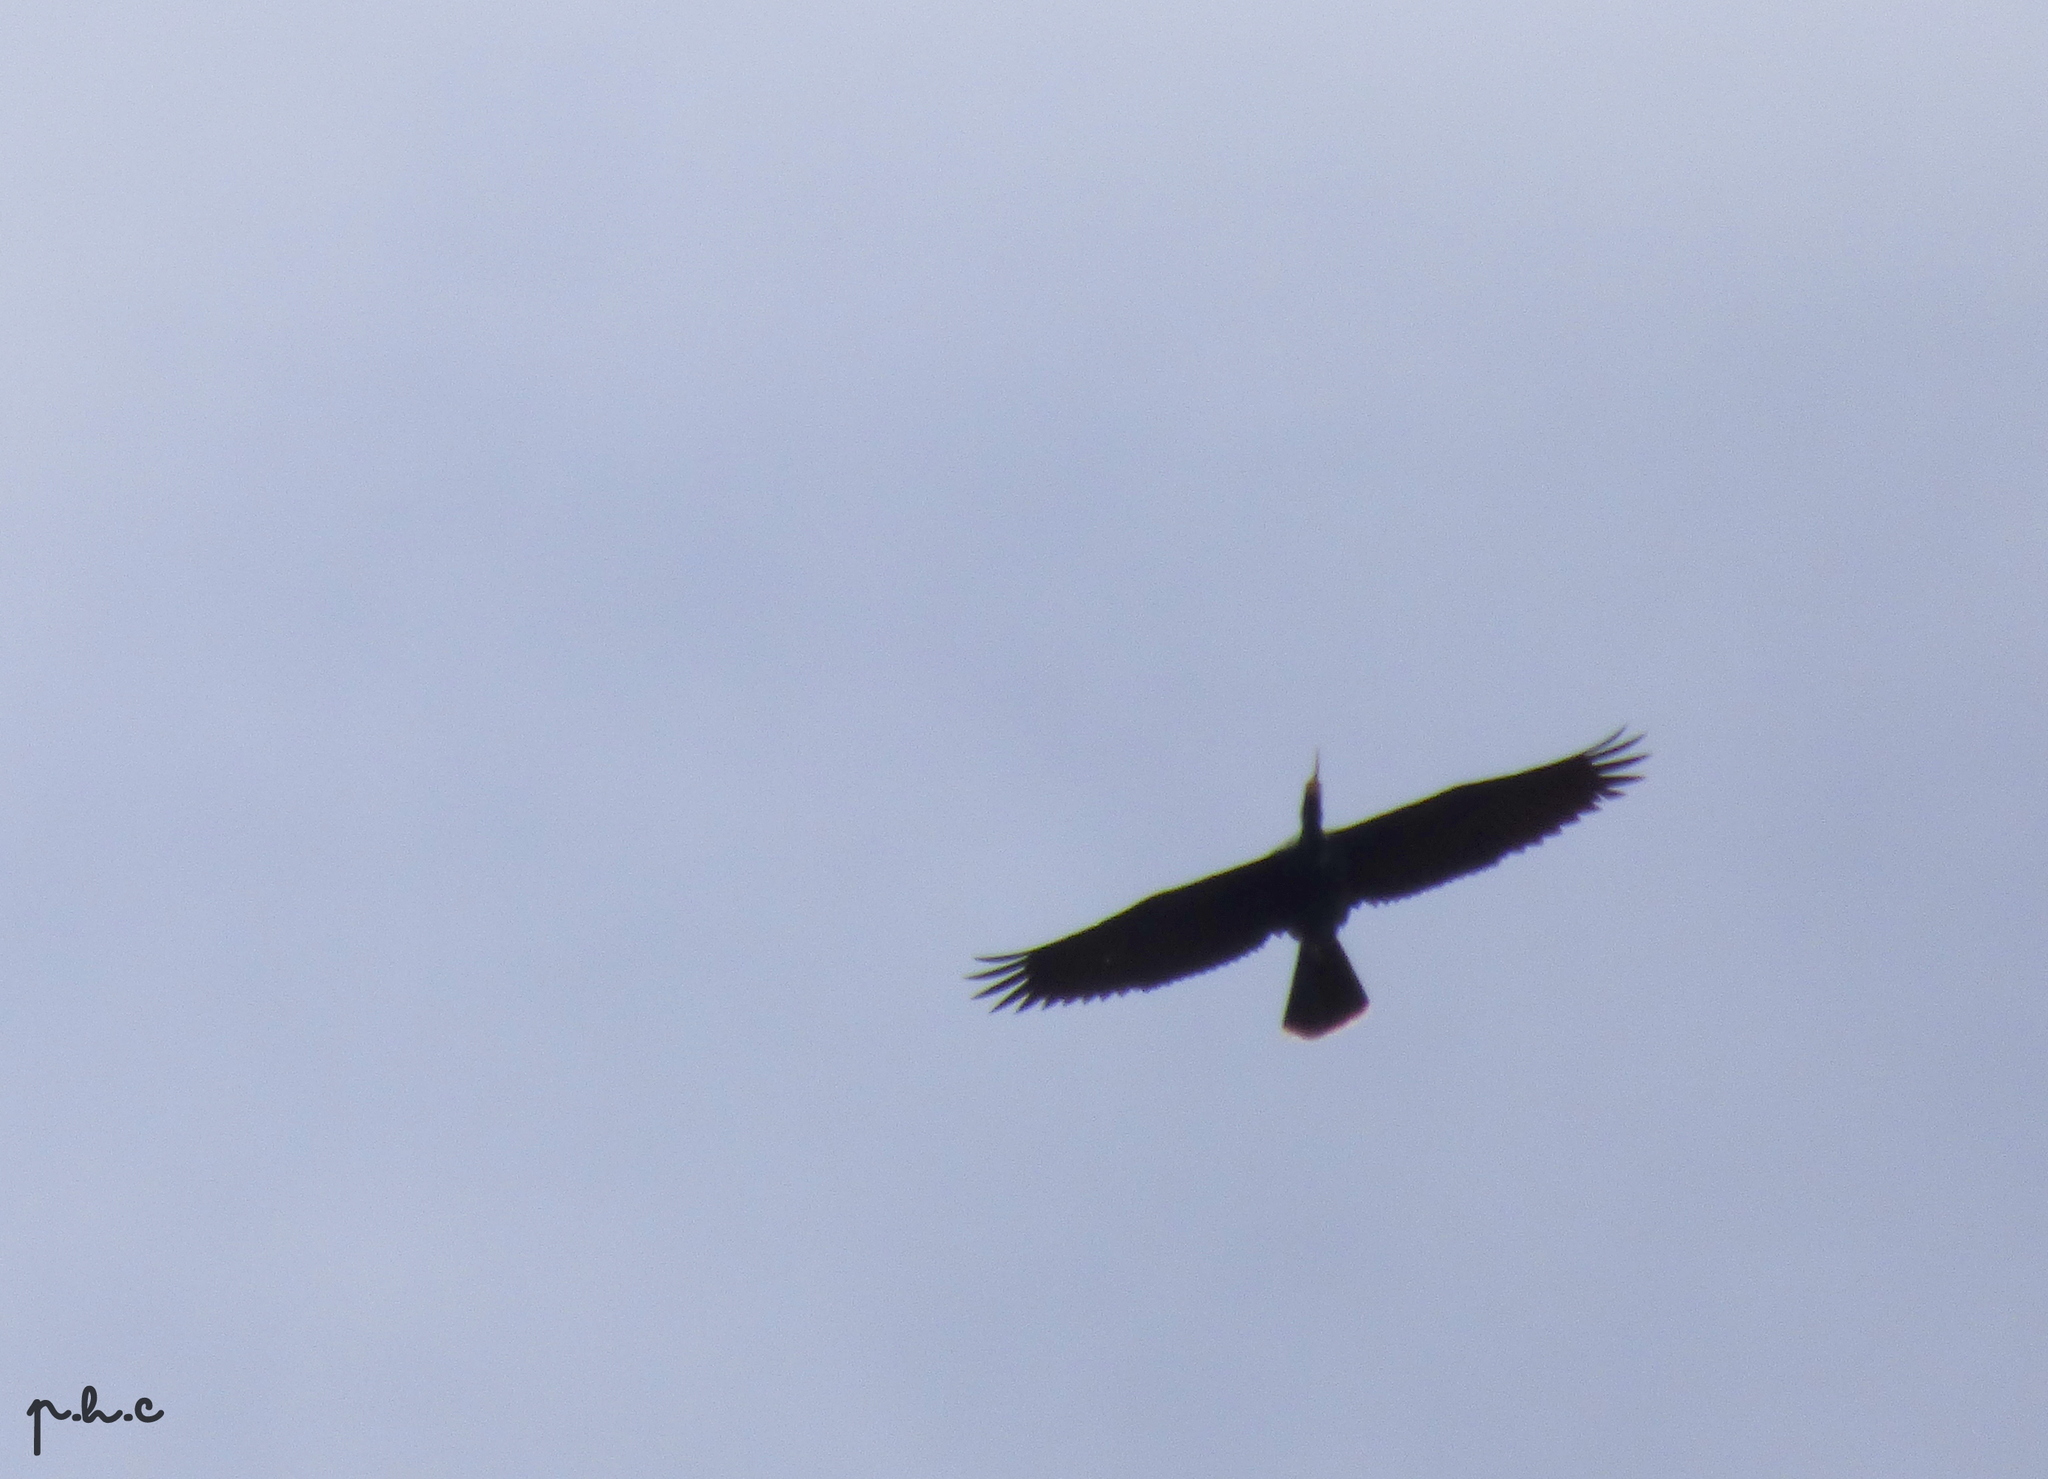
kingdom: Animalia
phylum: Chordata
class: Aves
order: Suliformes
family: Anhingidae
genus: Anhinga
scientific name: Anhinga anhinga
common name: Anhinga
